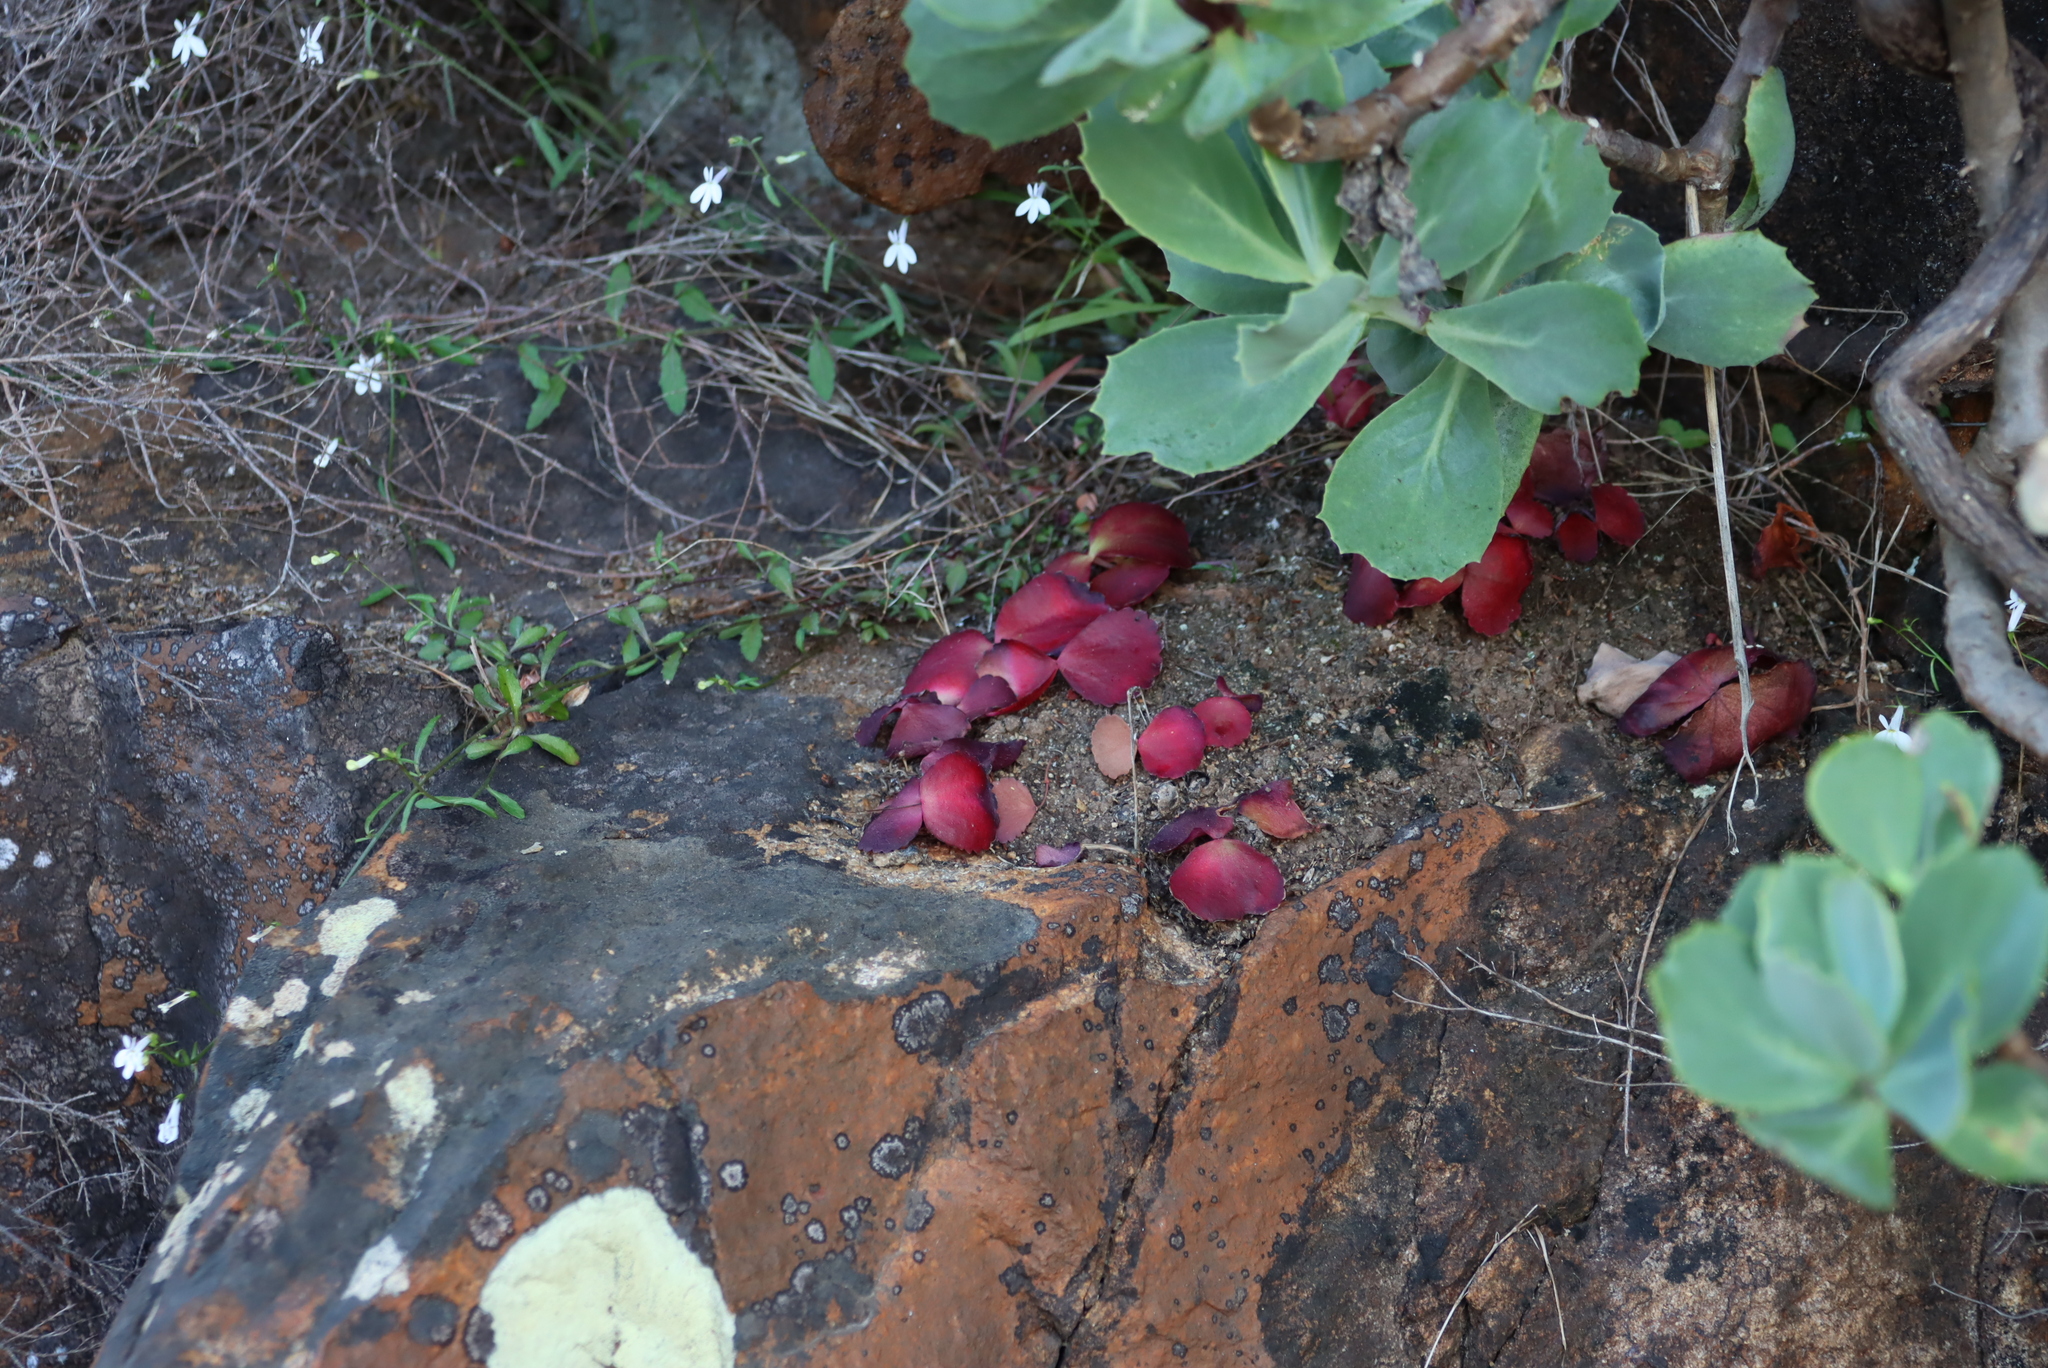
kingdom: Plantae
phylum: Tracheophyta
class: Magnoliopsida
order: Saxifragales
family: Crassulaceae
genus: Crassula
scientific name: Crassula capensis
